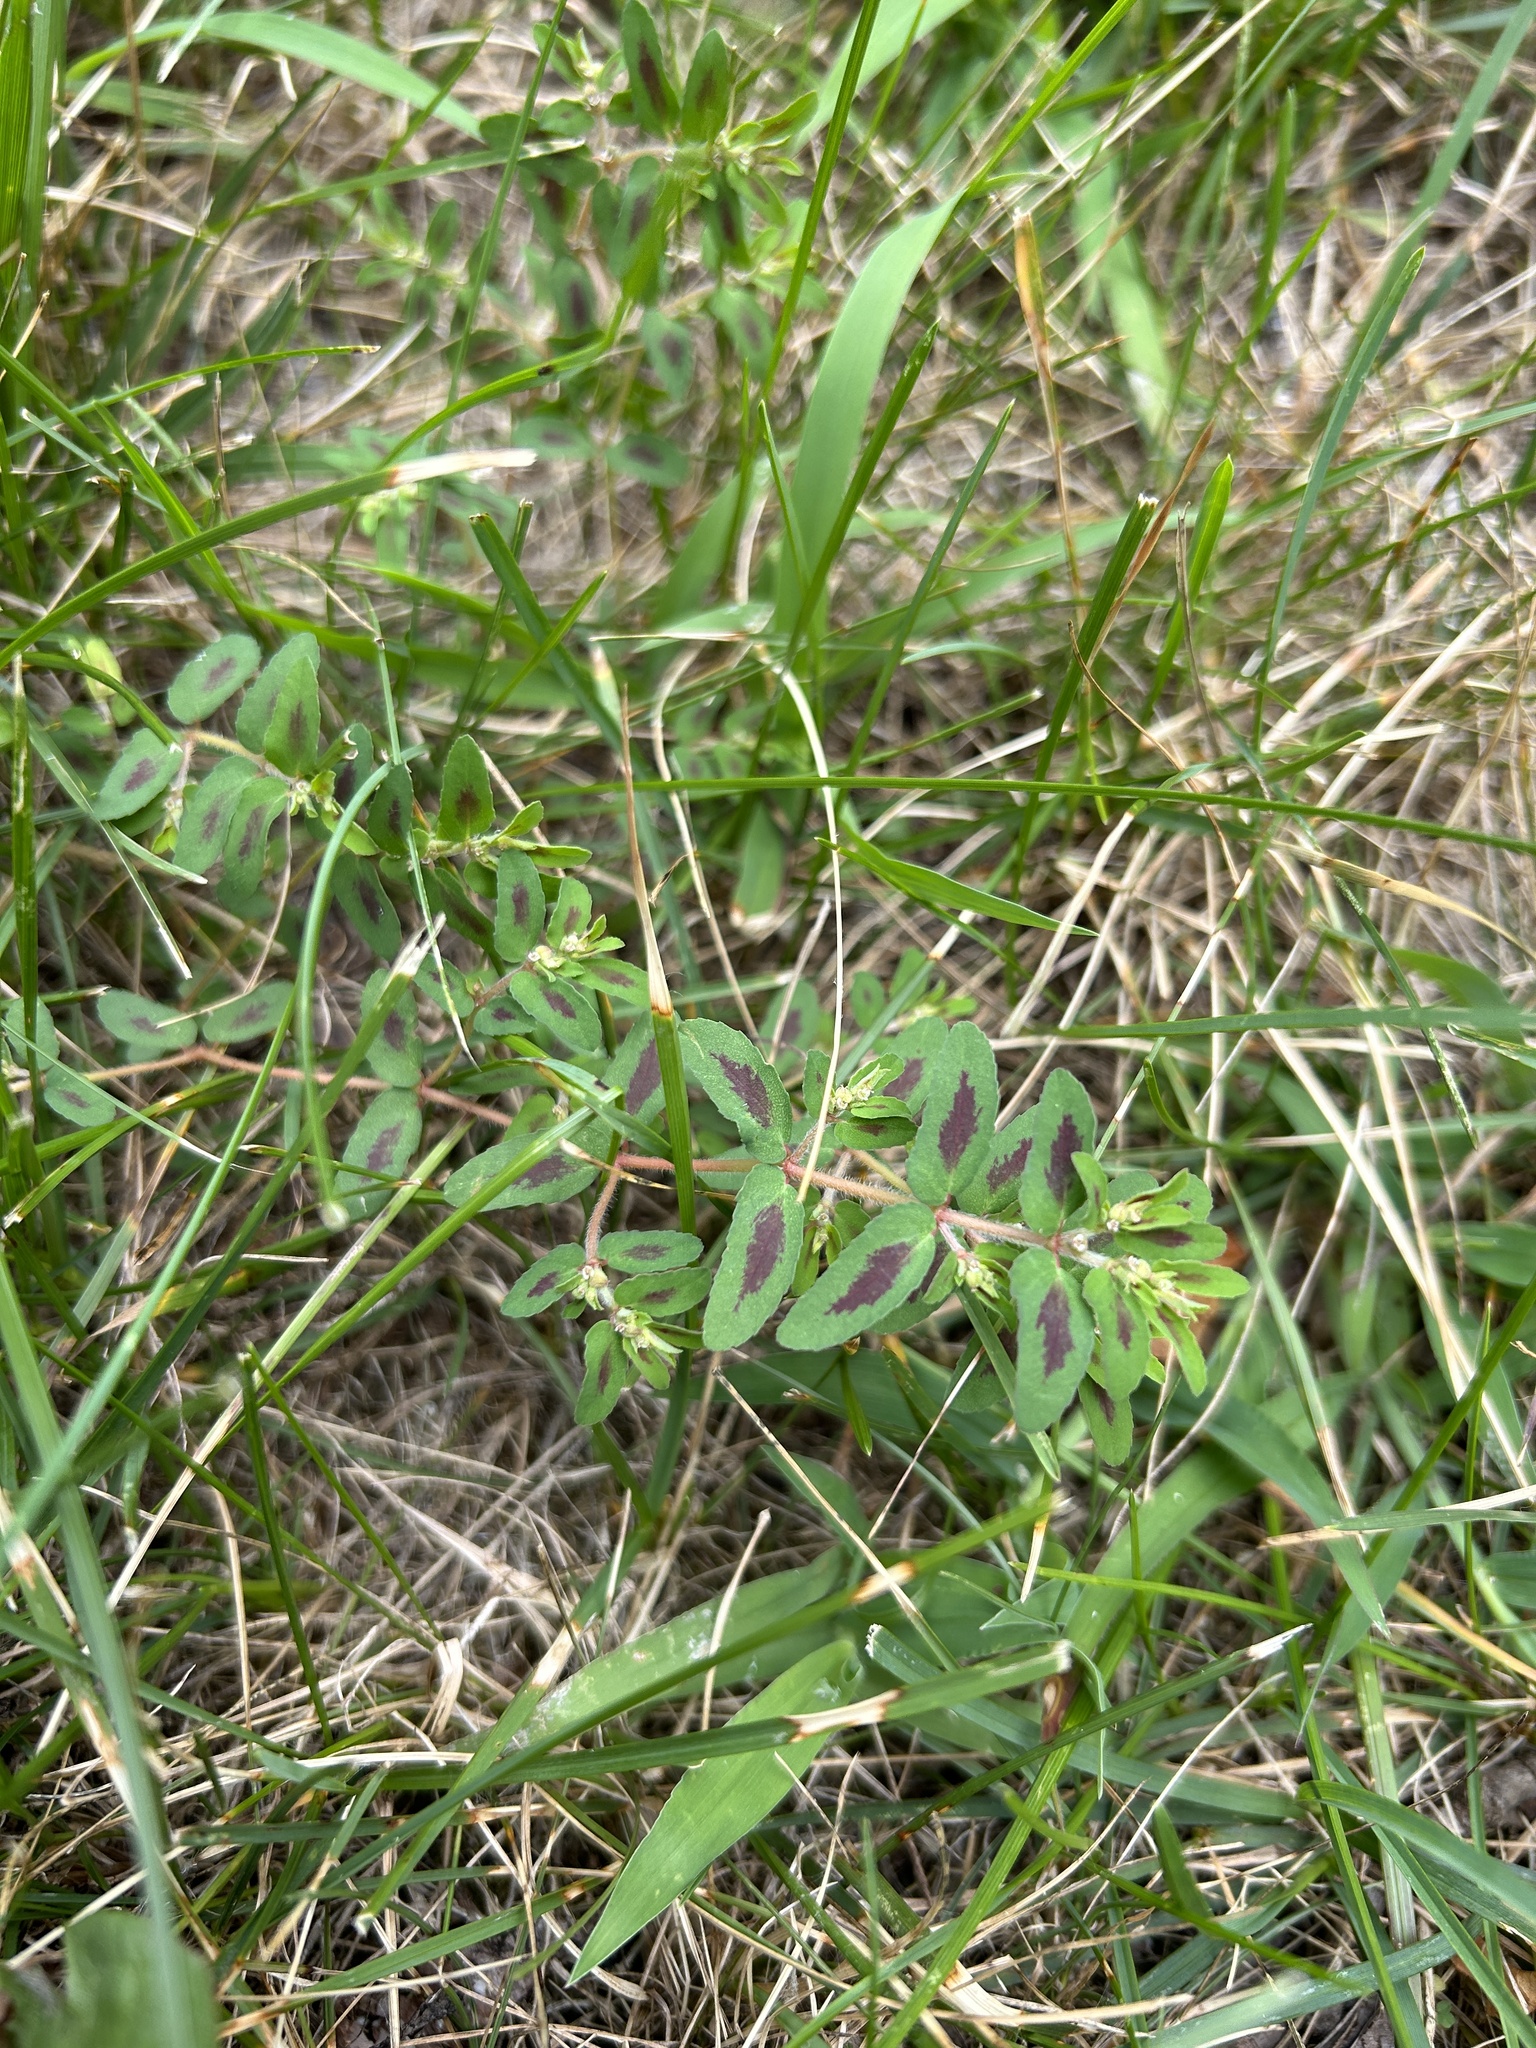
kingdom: Plantae
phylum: Tracheophyta
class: Magnoliopsida
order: Malpighiales
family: Euphorbiaceae
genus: Euphorbia
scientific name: Euphorbia maculata
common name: Spotted spurge
